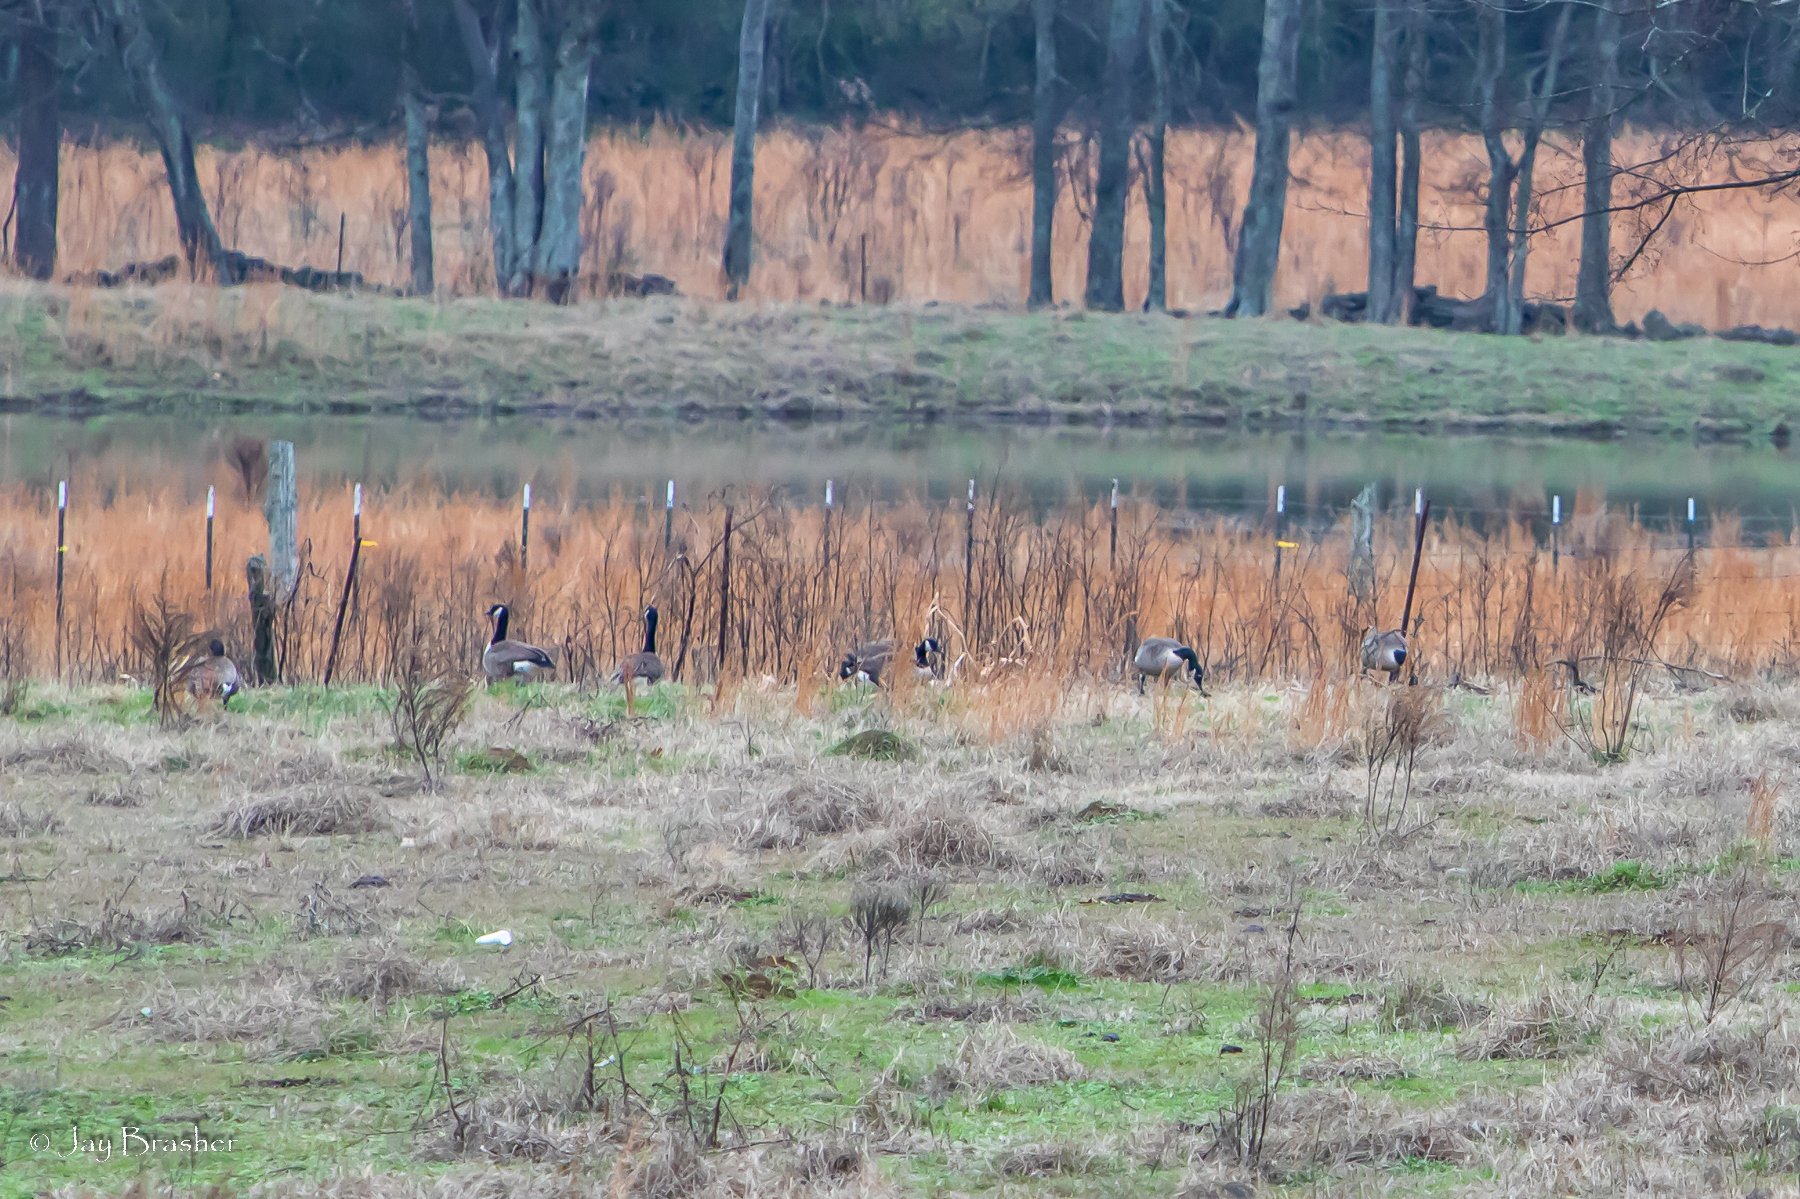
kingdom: Animalia
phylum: Chordata
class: Aves
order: Anseriformes
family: Anatidae
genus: Branta
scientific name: Branta canadensis
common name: Canada goose
